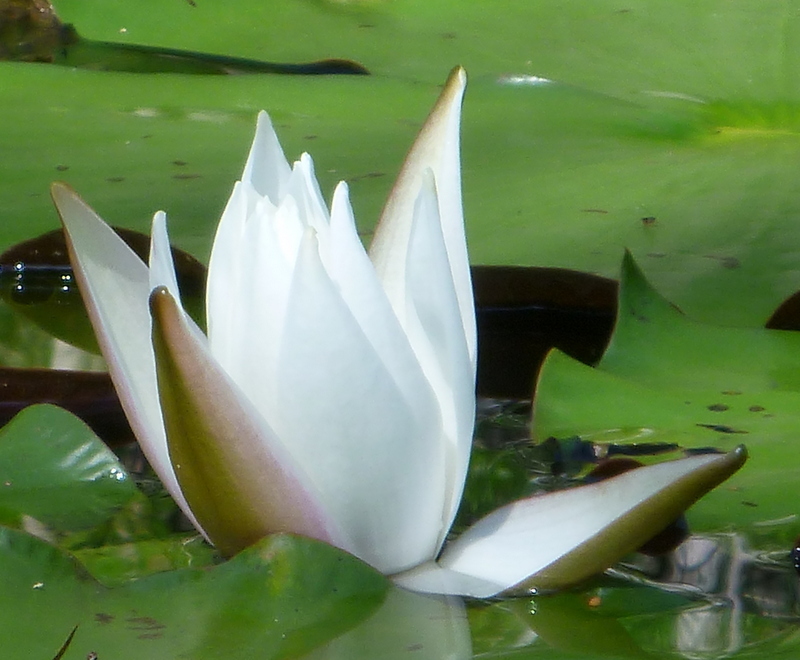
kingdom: Plantae
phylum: Tracheophyta
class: Magnoliopsida
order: Nymphaeales
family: Nymphaeaceae
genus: Nymphaea
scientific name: Nymphaea odorata
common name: Fragrant water-lily
